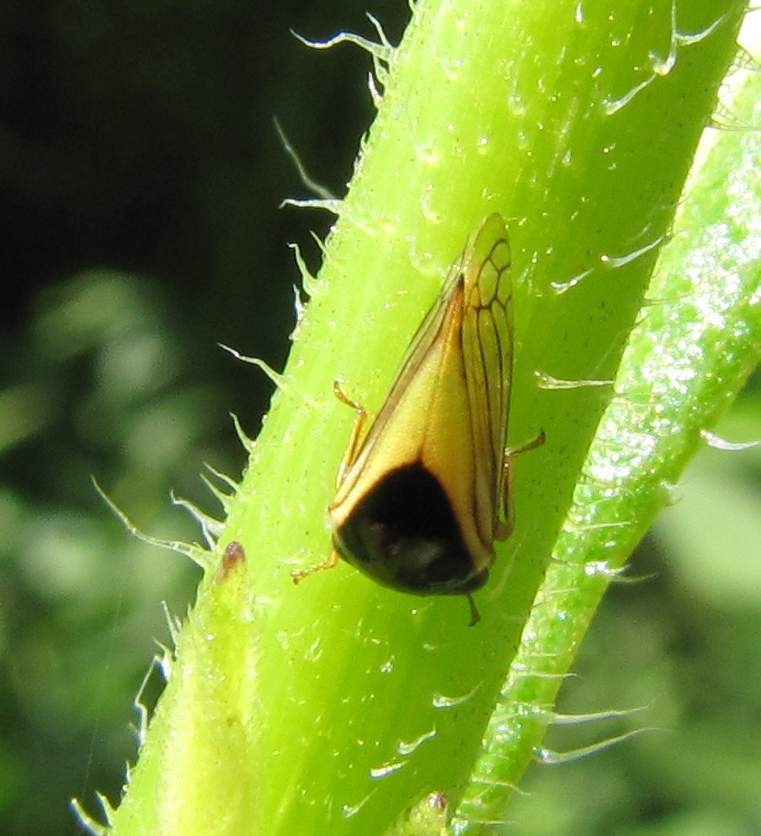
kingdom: Animalia
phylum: Arthropoda
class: Insecta
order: Hemiptera
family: Membracidae
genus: Acutalis
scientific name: Acutalis tartarea
